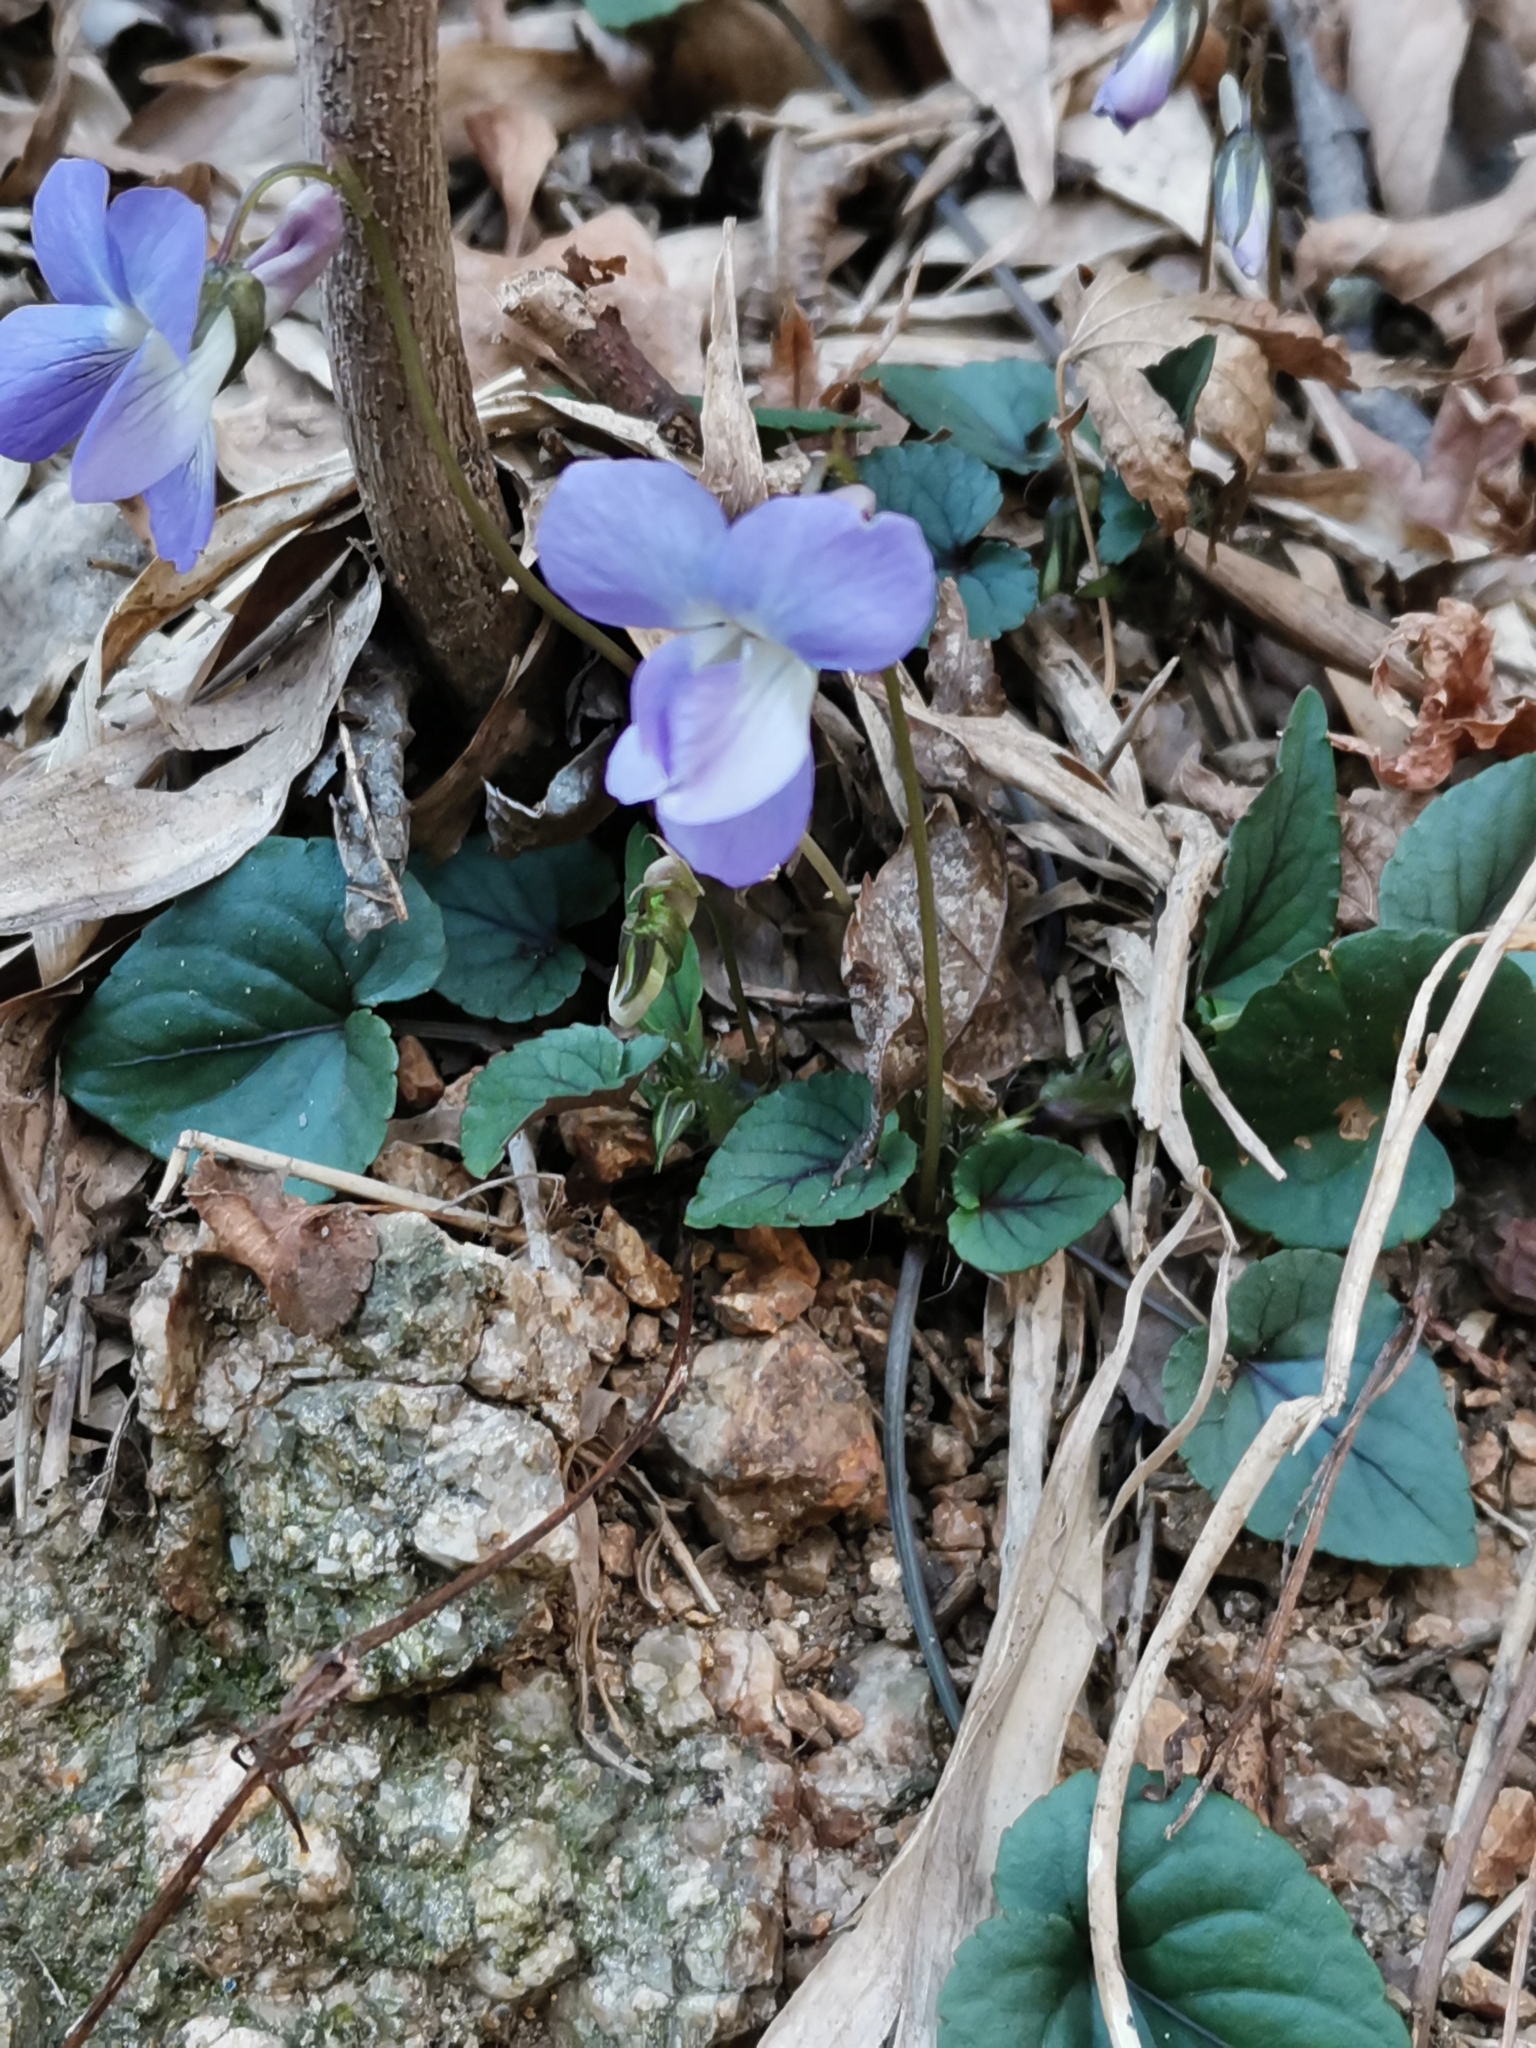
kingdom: Plantae
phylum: Tracheophyta
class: Magnoliopsida
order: Malpighiales
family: Violaceae
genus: Viola
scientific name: Viola ovatooblonga
